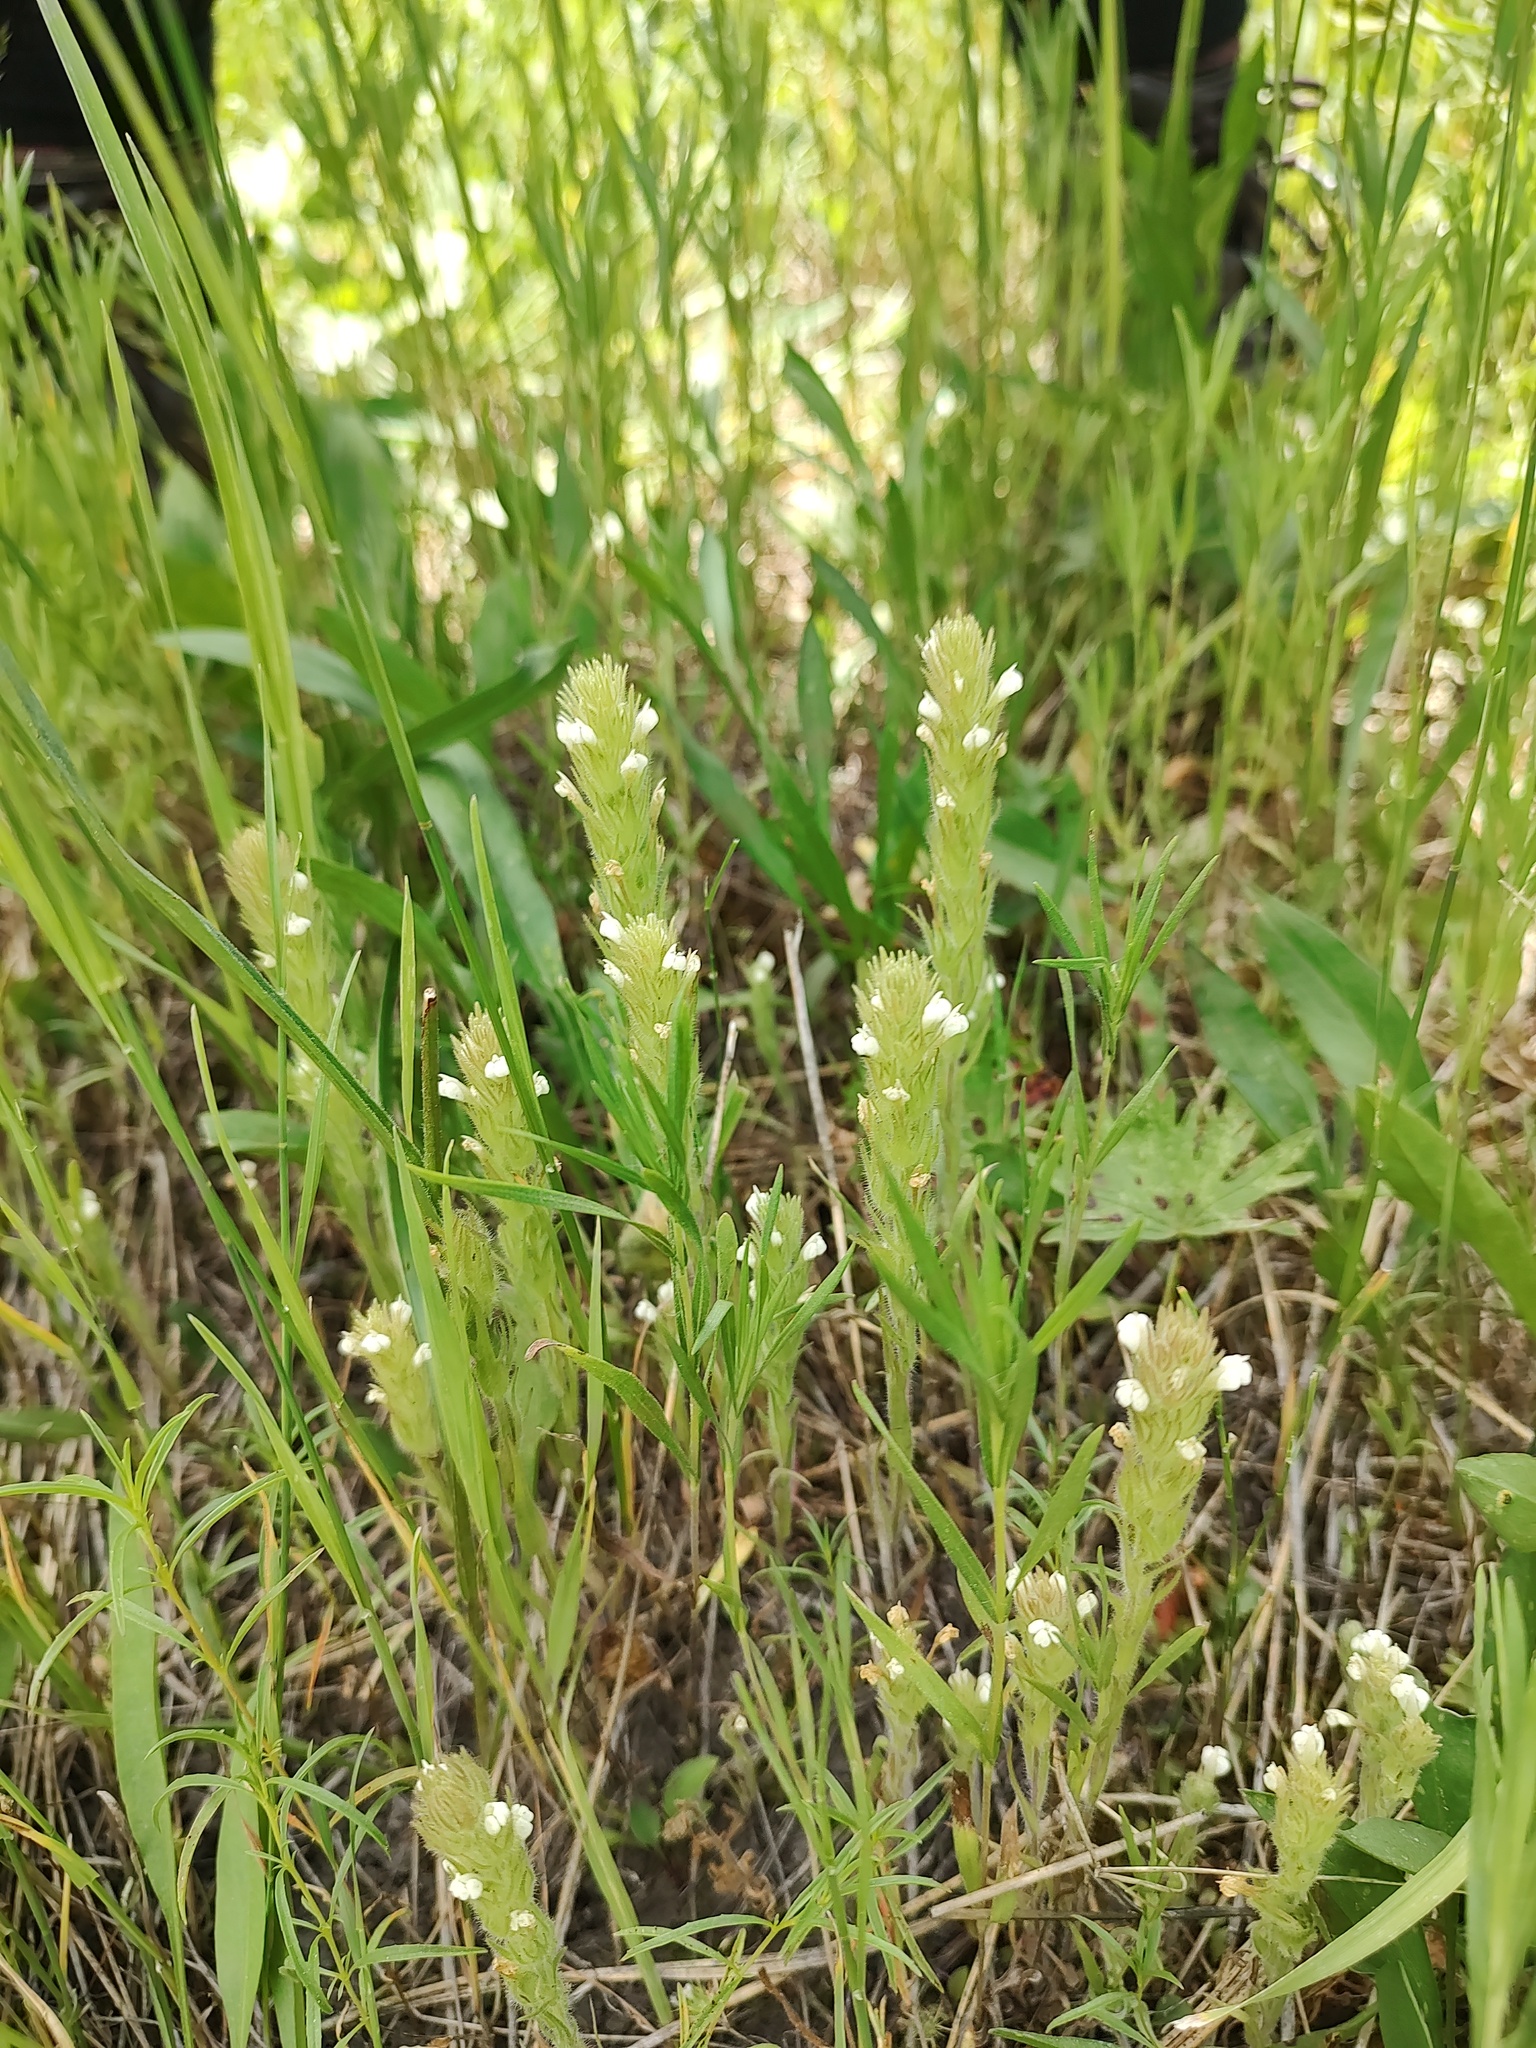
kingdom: Plantae
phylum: Tracheophyta
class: Magnoliopsida
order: Lamiales
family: Orobanchaceae
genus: Castilleja
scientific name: Castilleja tenuis
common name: Hairy indian paintbrush
